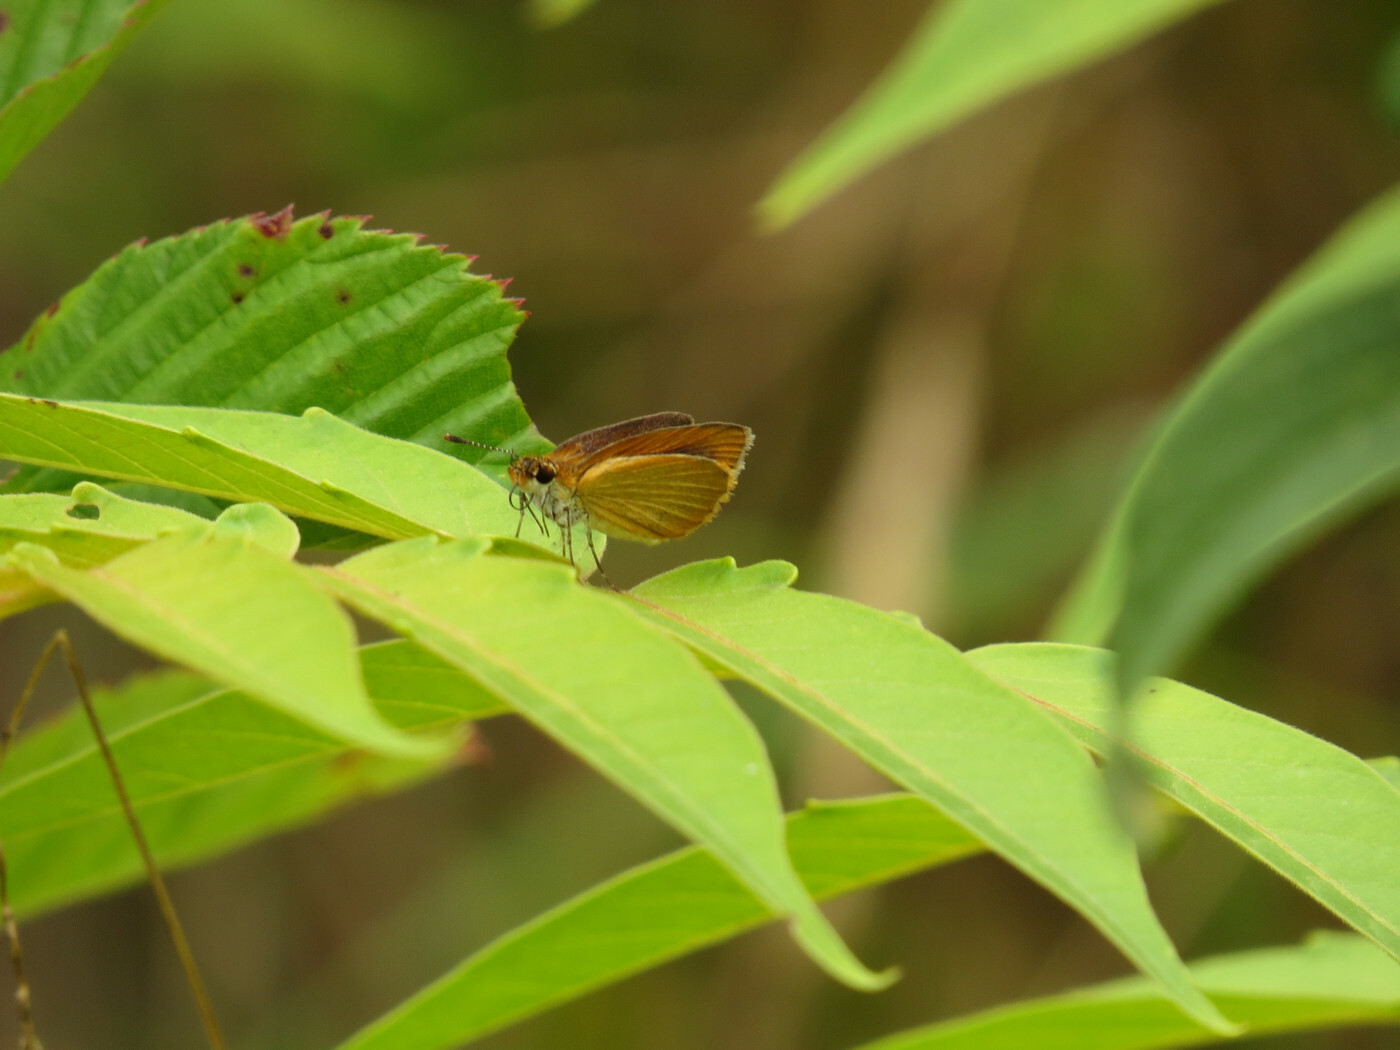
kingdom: Animalia
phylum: Arthropoda
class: Insecta
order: Lepidoptera
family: Hesperiidae
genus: Ancyloxypha
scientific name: Ancyloxypha numitor
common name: Least skipper
